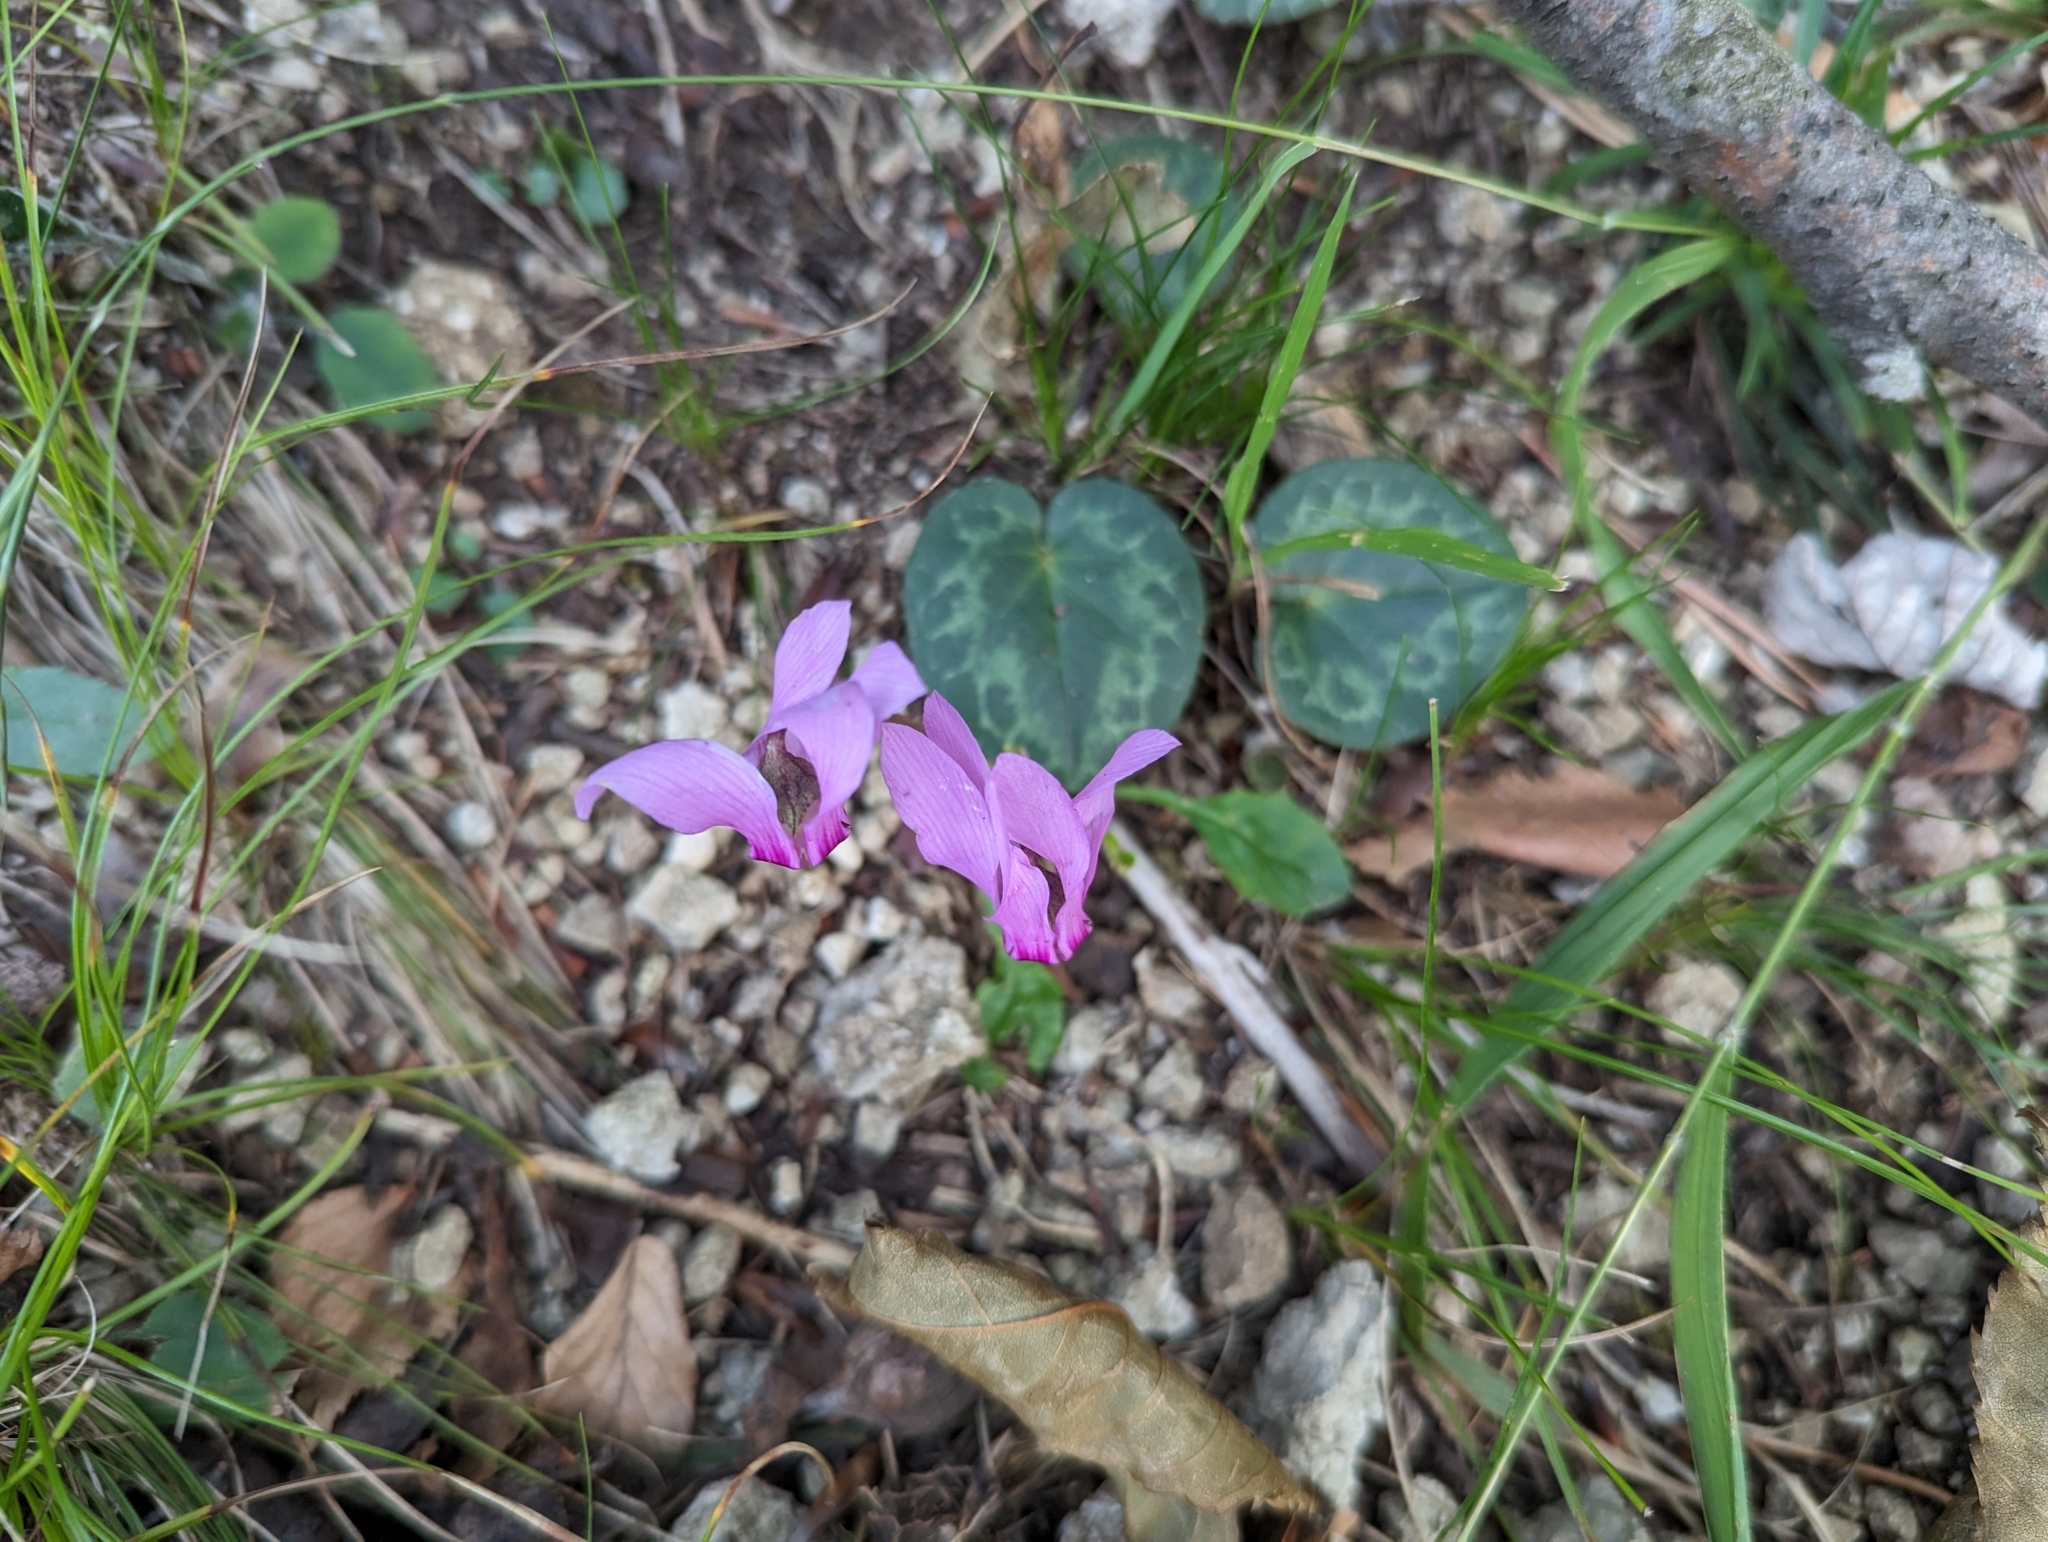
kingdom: Plantae
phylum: Tracheophyta
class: Magnoliopsida
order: Ericales
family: Primulaceae
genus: Cyclamen
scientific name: Cyclamen purpurascens
